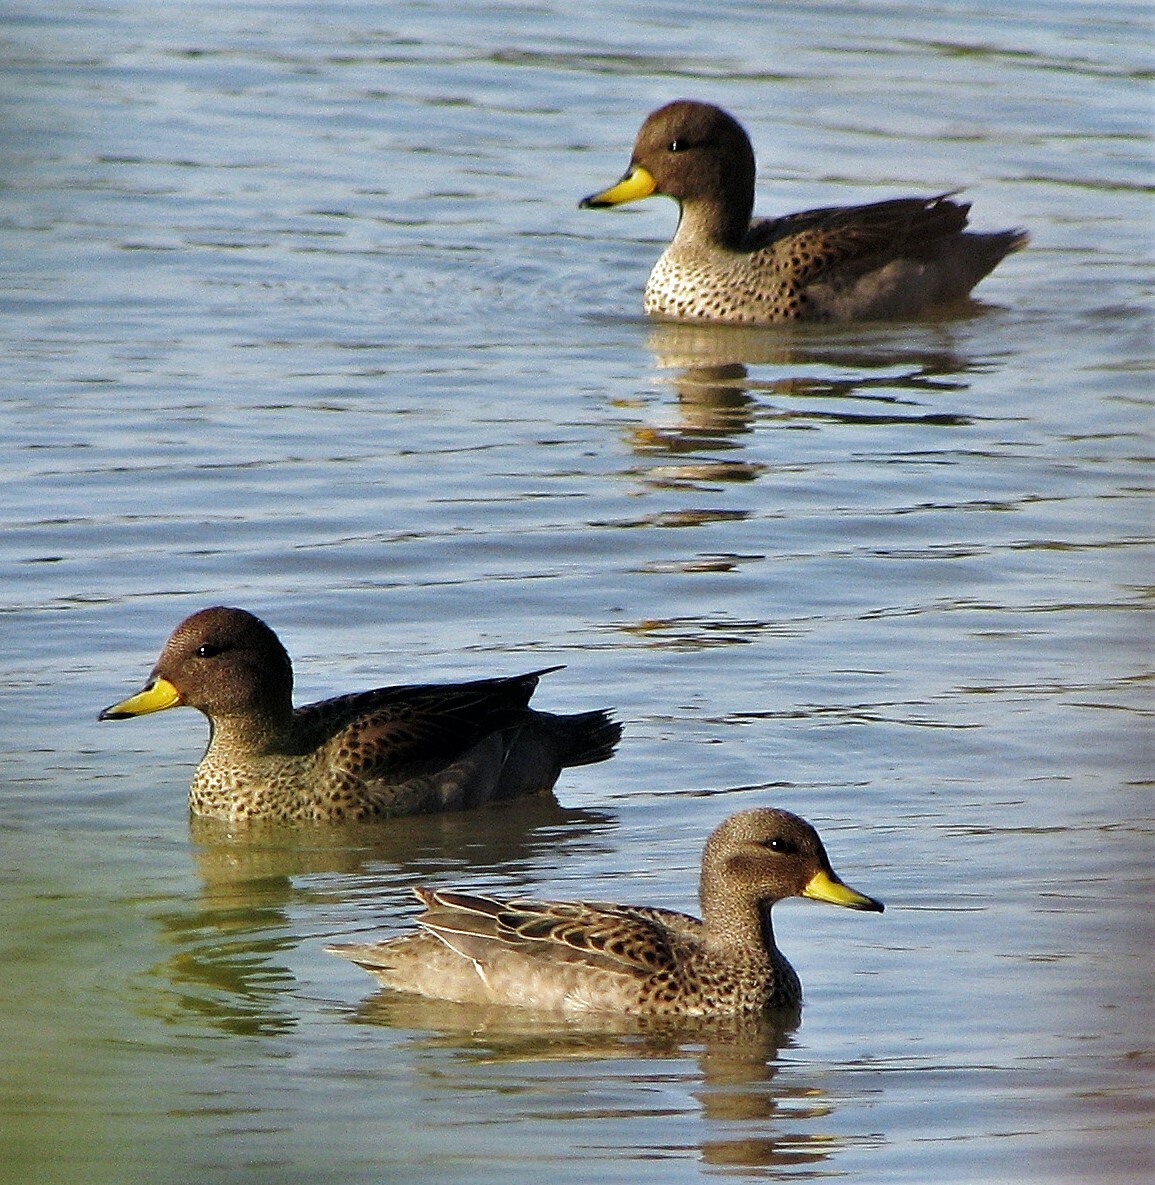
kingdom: Animalia
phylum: Chordata
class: Aves
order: Anseriformes
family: Anatidae
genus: Anas
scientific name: Anas flavirostris
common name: Yellow-billed teal
